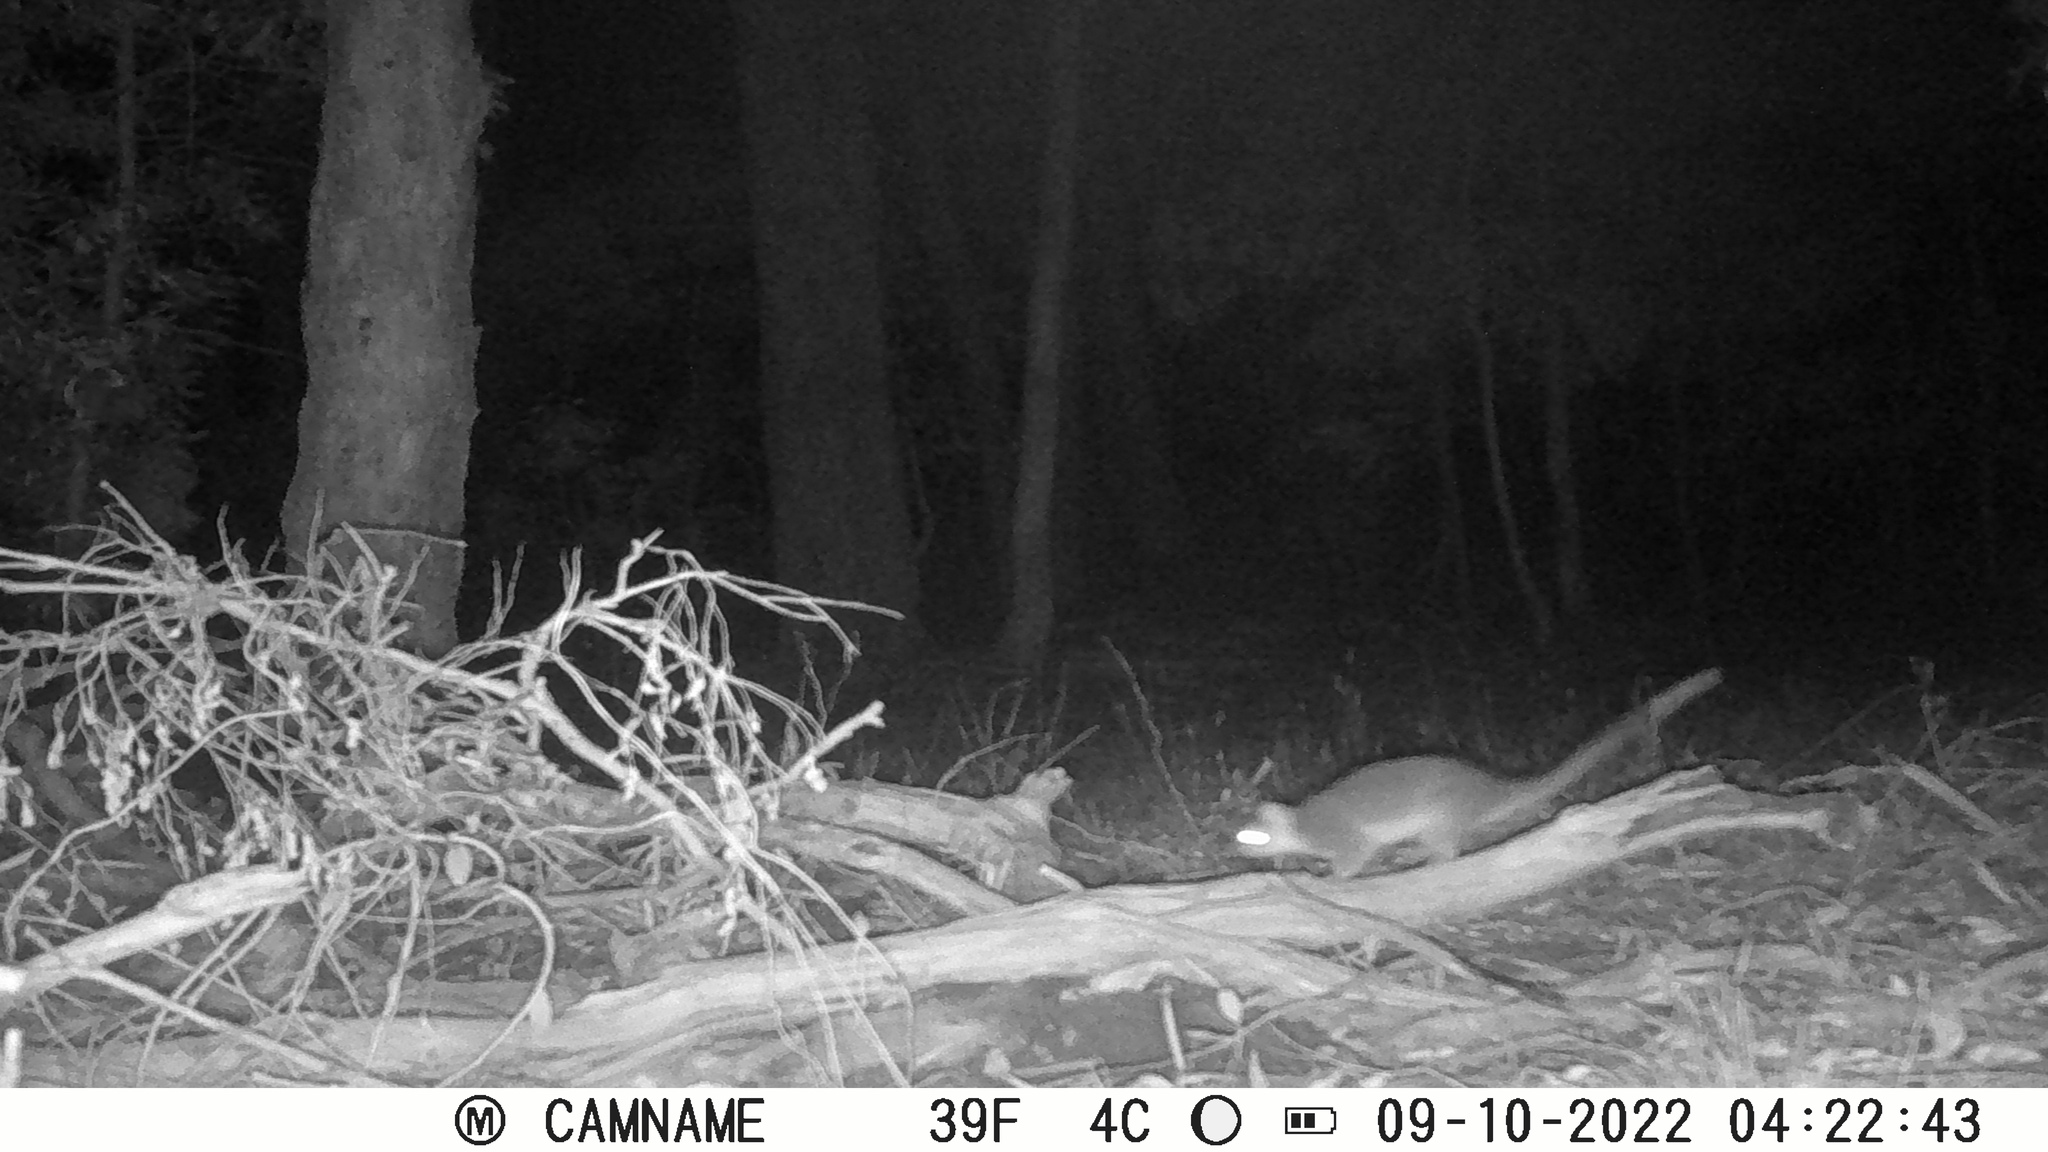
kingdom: Animalia
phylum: Chordata
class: Mammalia
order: Diprotodontia
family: Pseudocheiridae
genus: Pseudocheirus
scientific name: Pseudocheirus peregrinus
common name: Common ringtail possum
